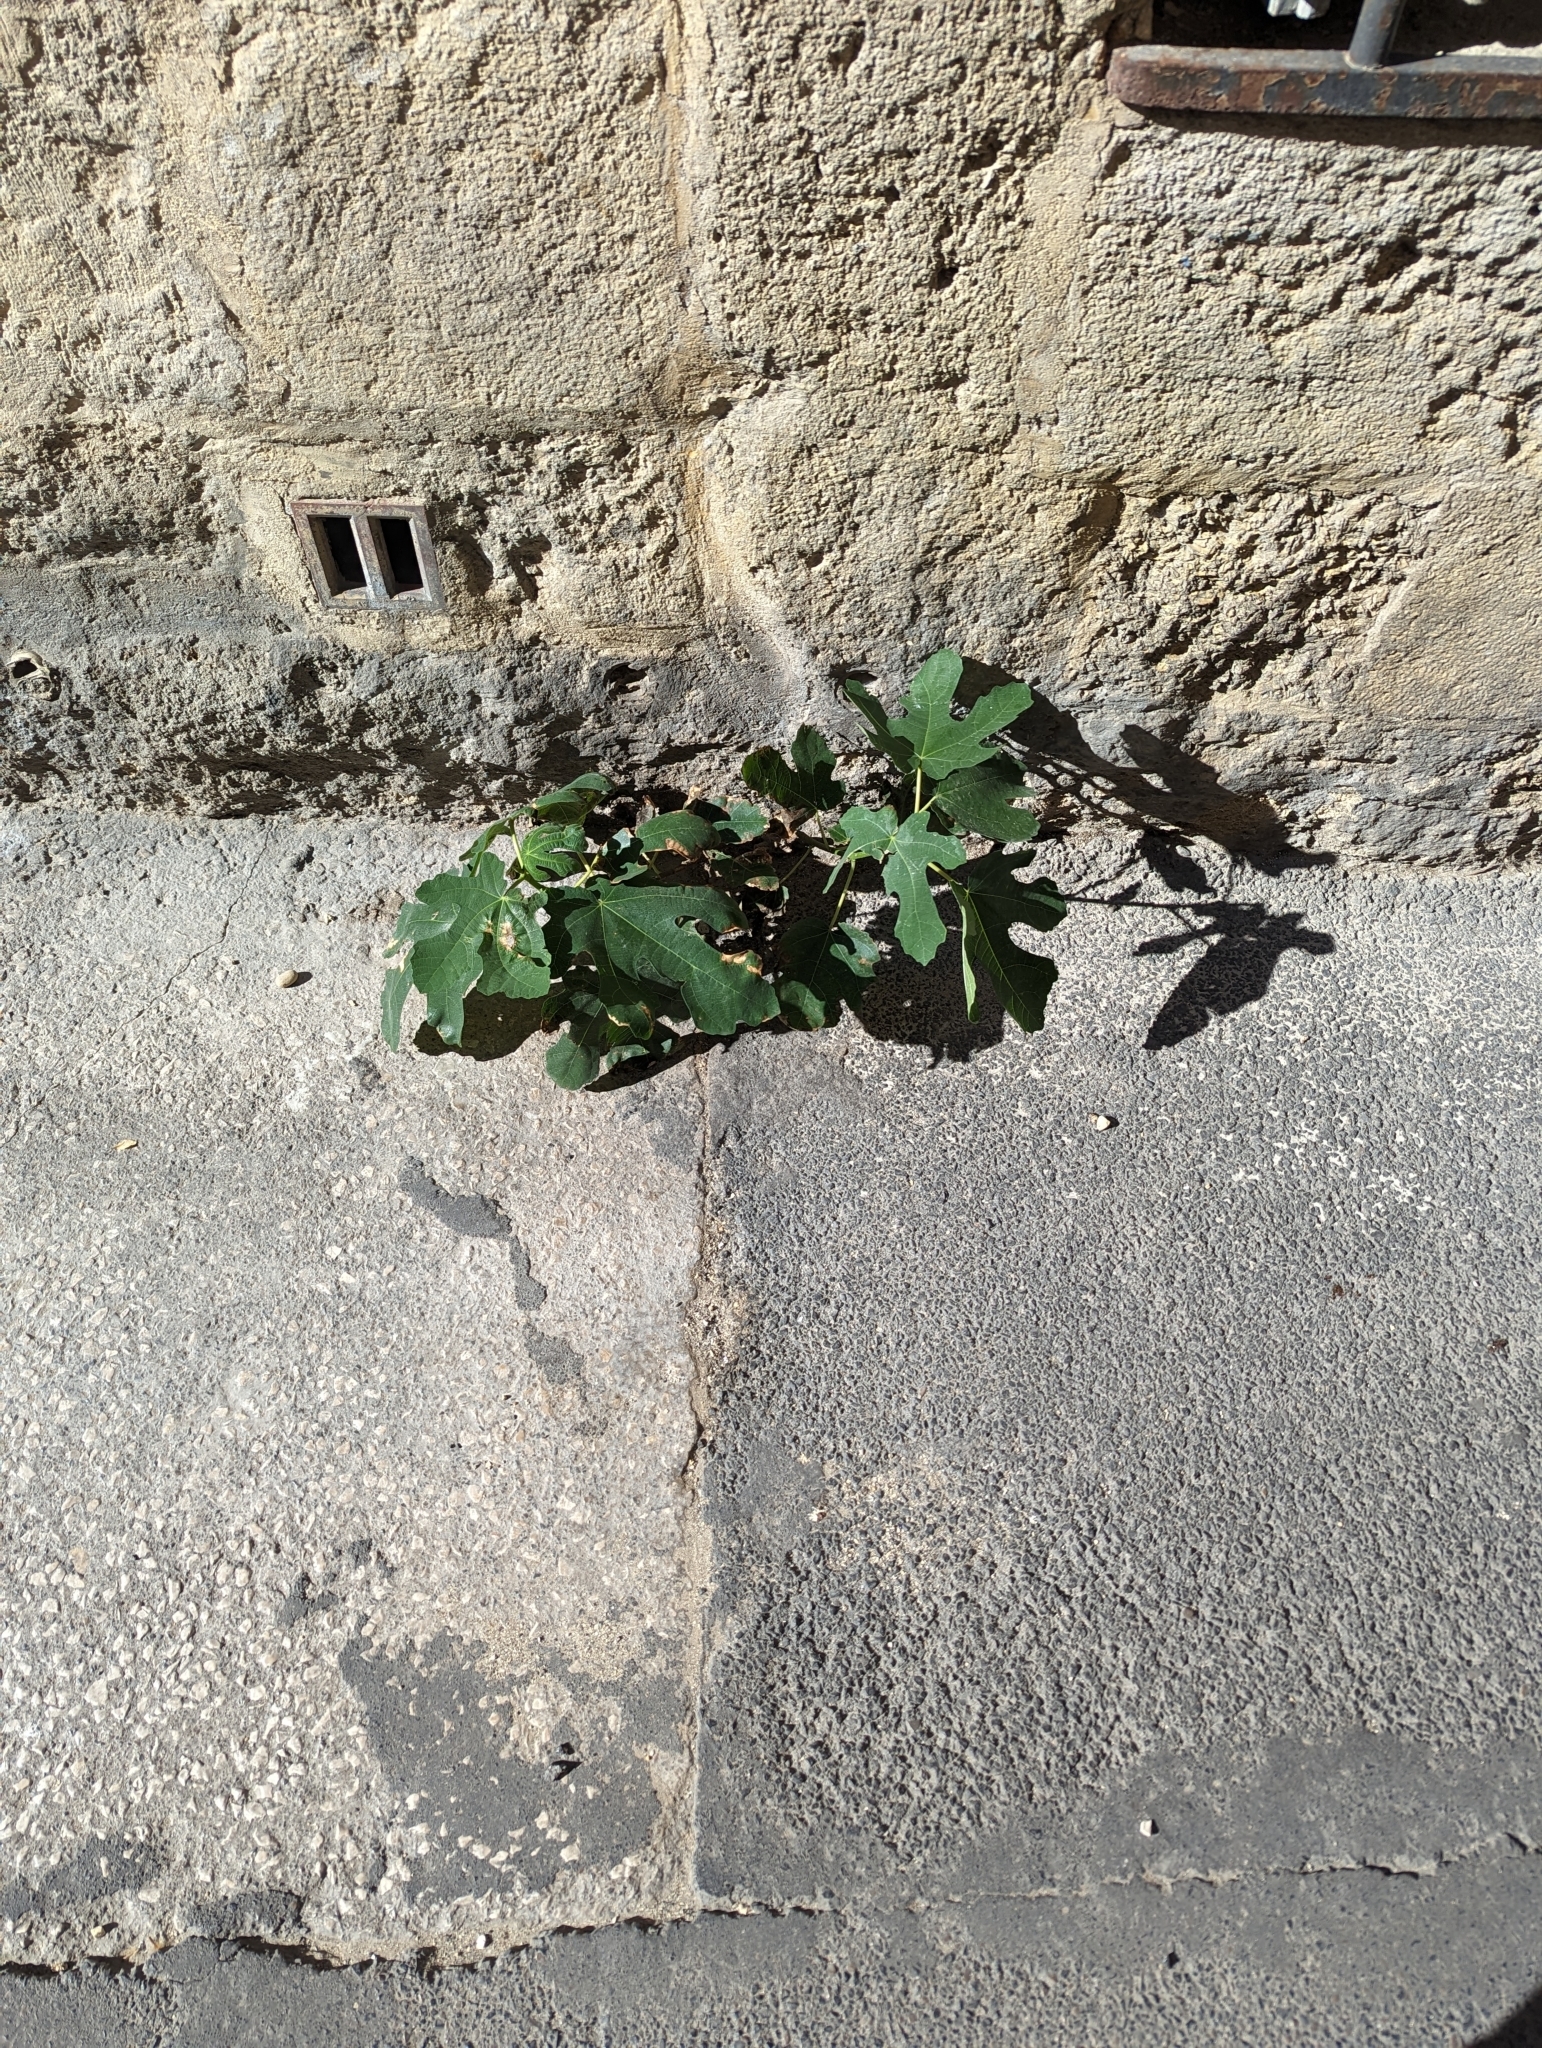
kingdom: Plantae
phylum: Tracheophyta
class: Magnoliopsida
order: Rosales
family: Moraceae
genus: Ficus
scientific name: Ficus carica
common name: Fig
